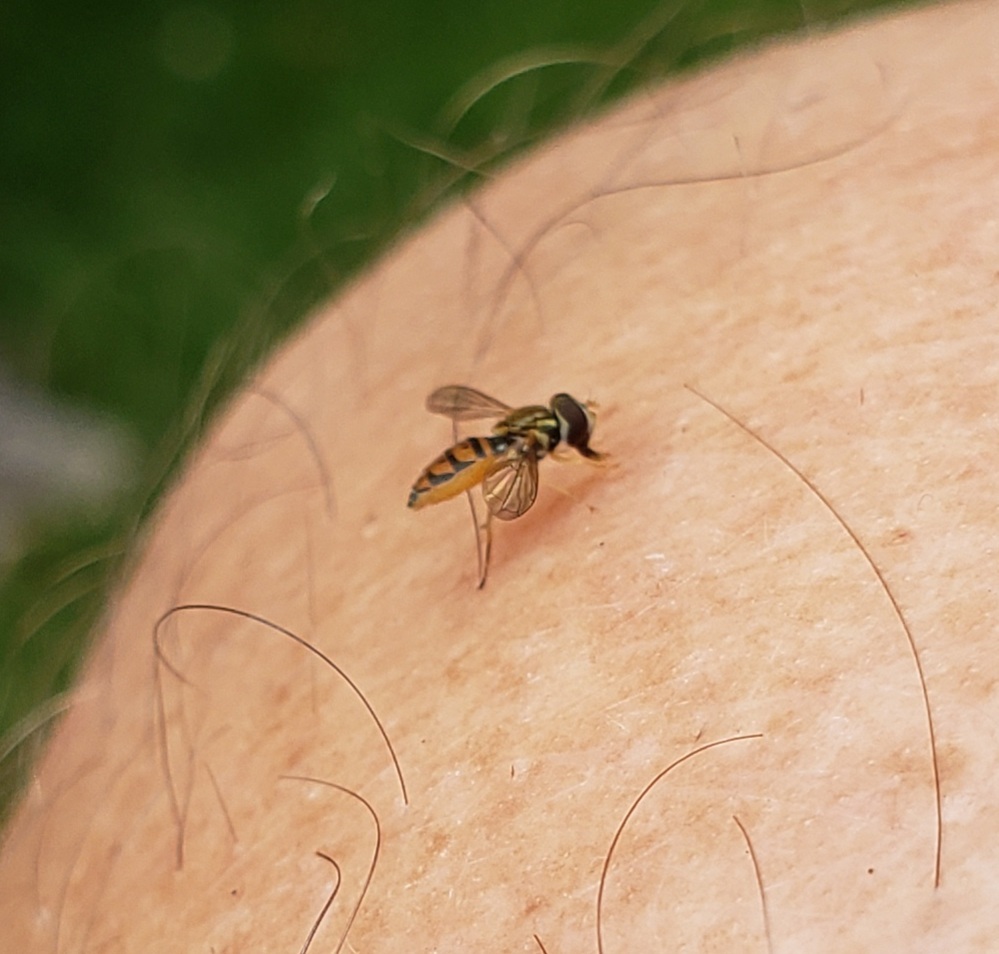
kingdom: Animalia
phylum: Arthropoda
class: Insecta
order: Diptera
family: Syrphidae
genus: Toxomerus
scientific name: Toxomerus marginatus
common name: Syrphid fly
